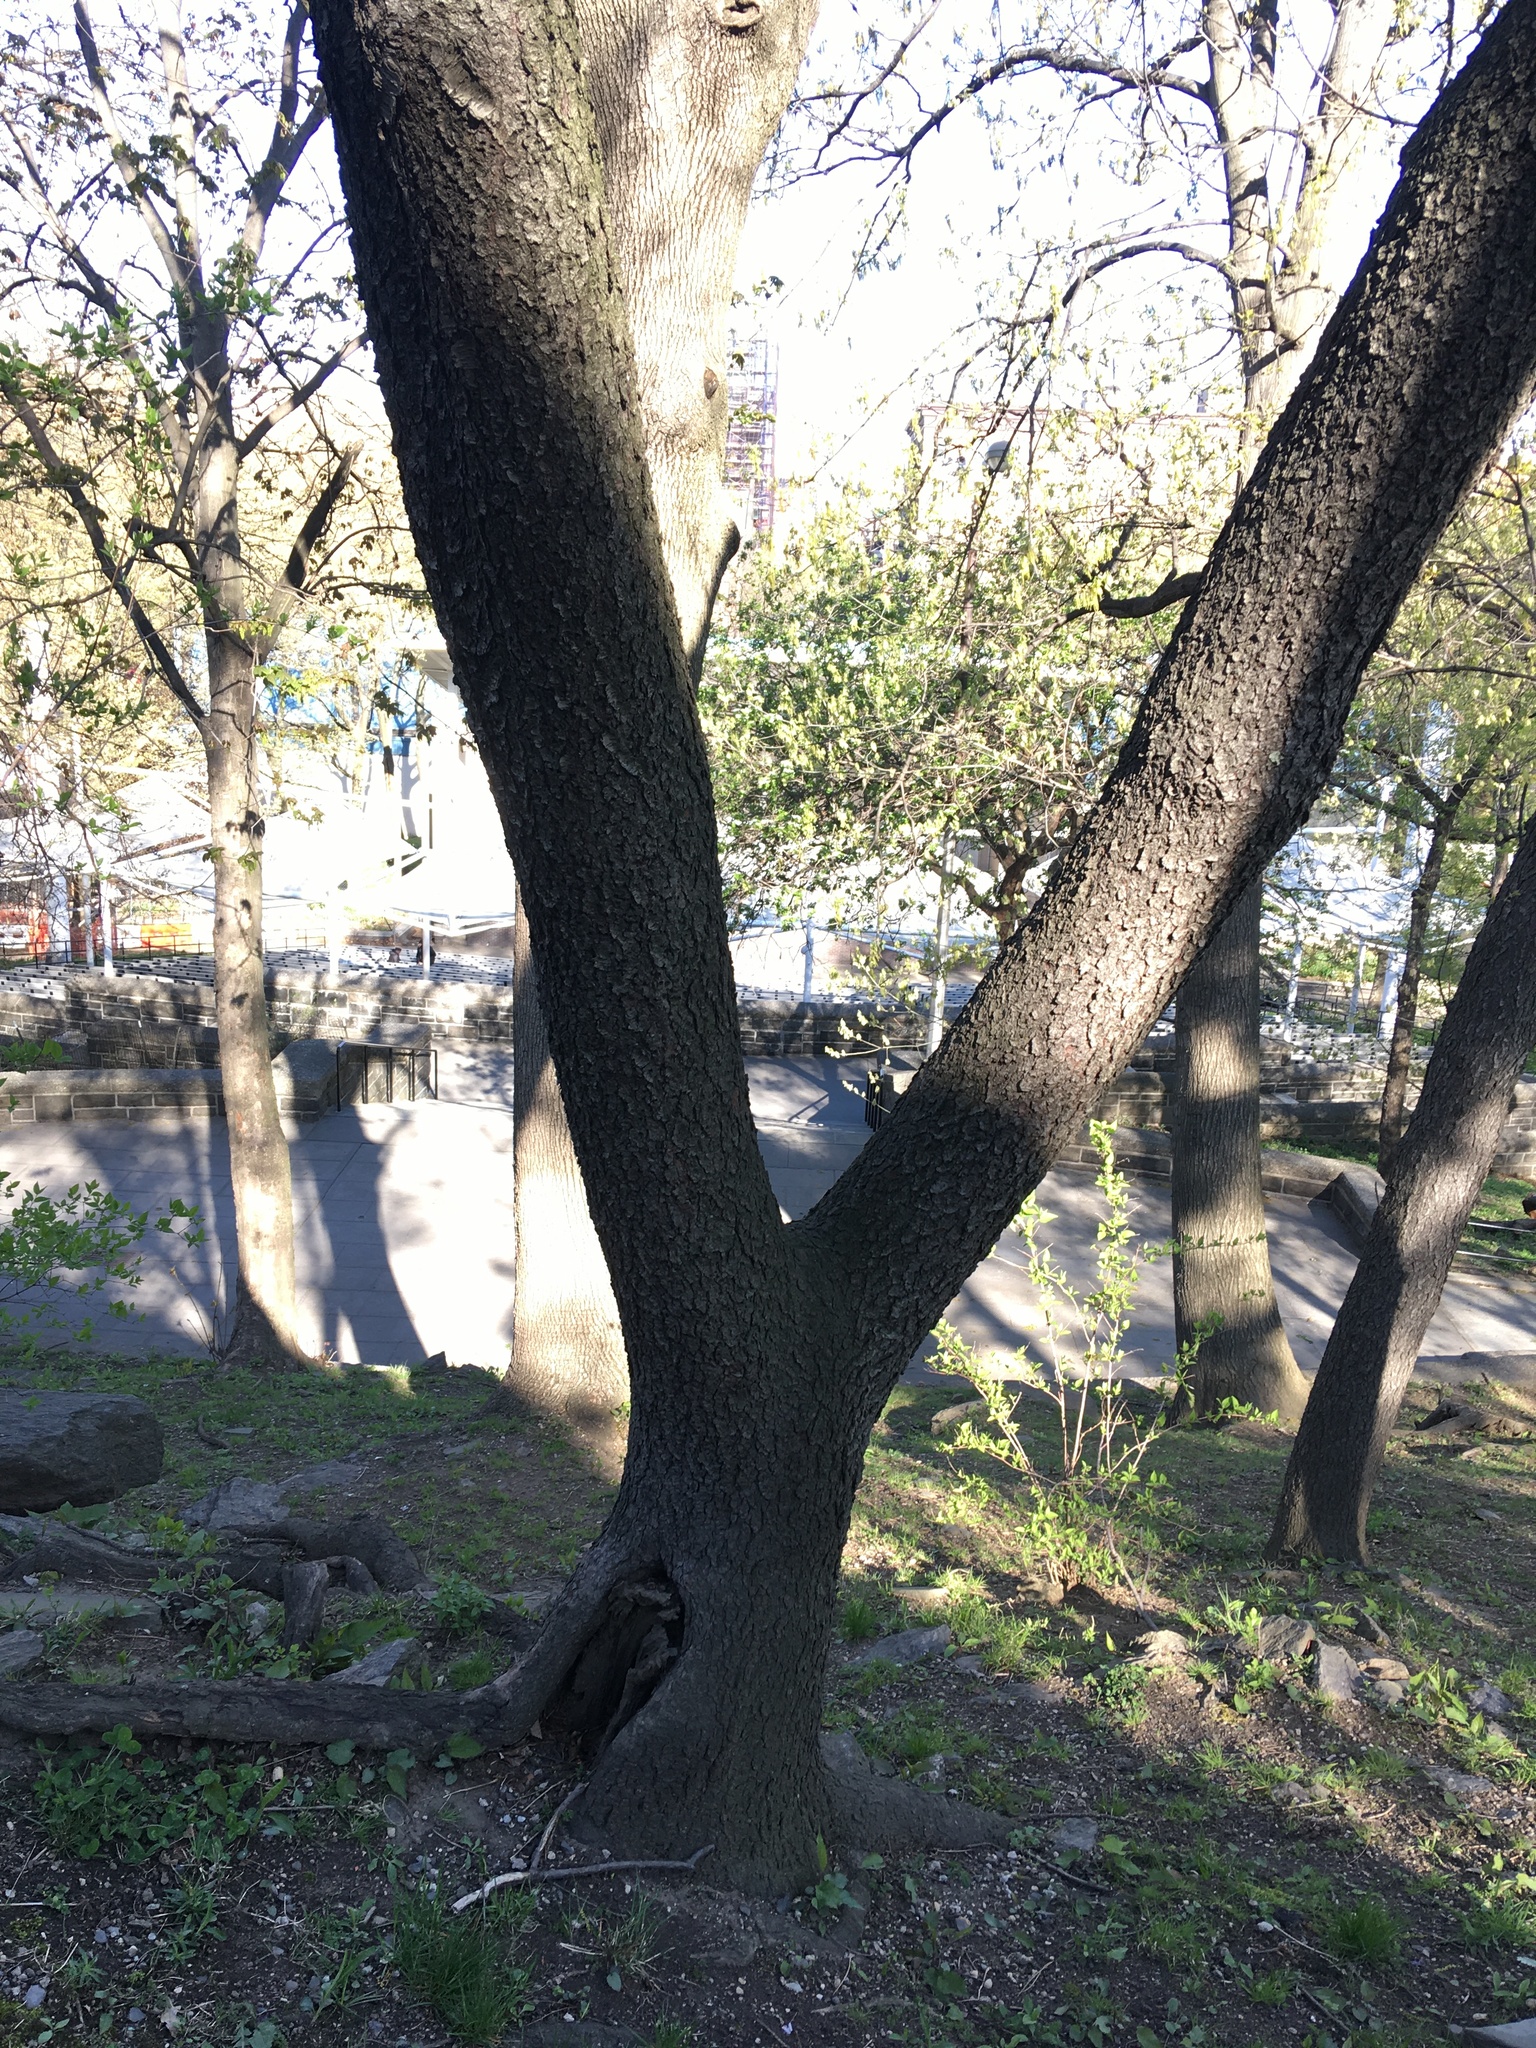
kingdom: Plantae
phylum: Tracheophyta
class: Magnoliopsida
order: Rosales
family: Rosaceae
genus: Prunus
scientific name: Prunus serotina
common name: Black cherry
